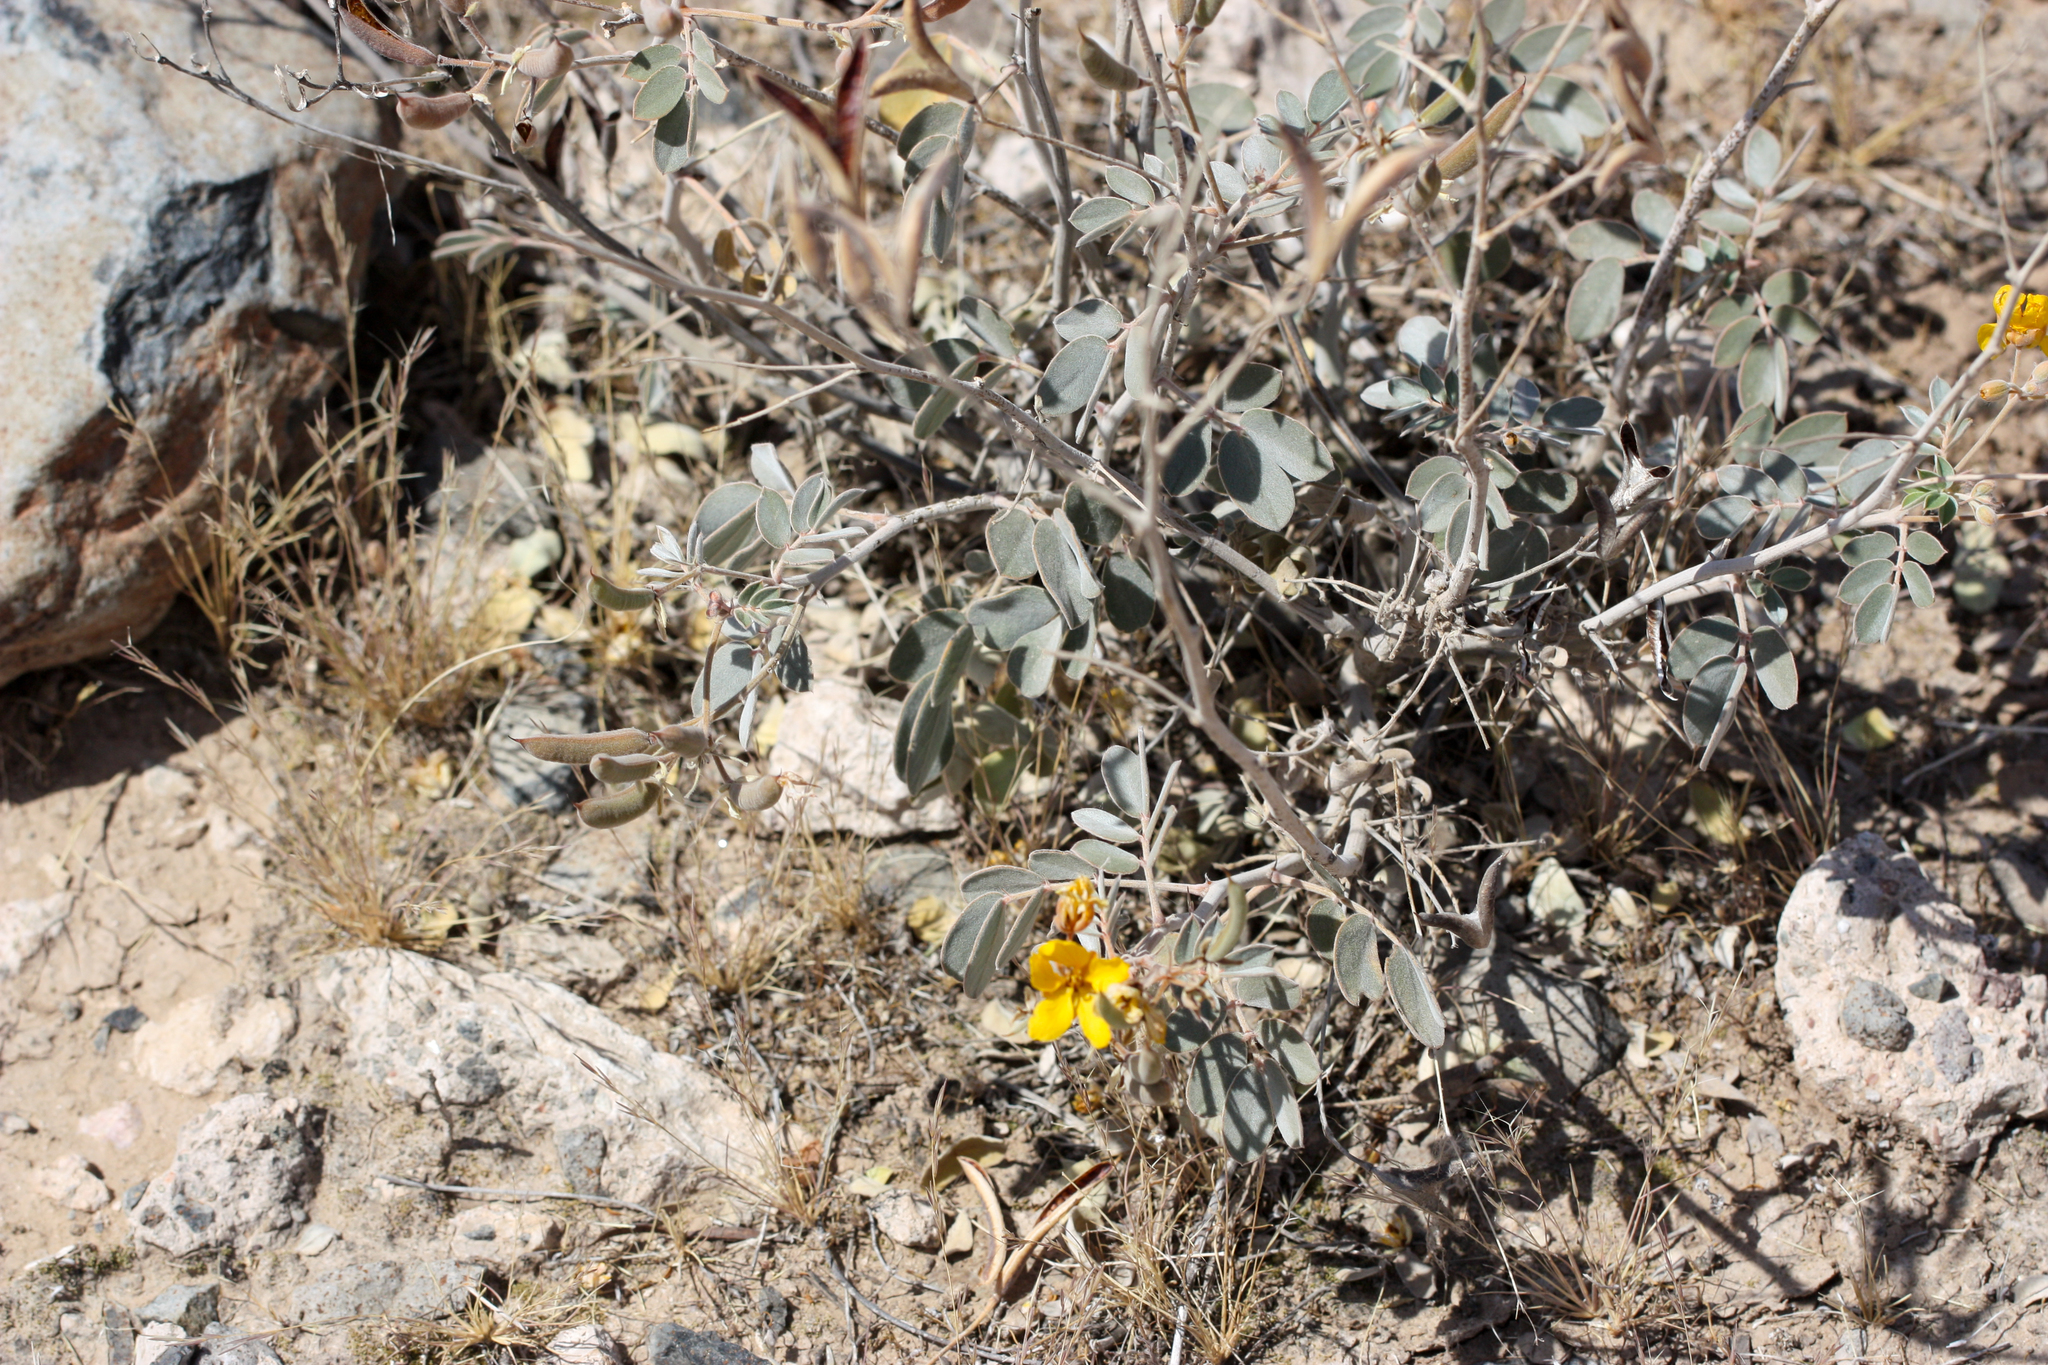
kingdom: Plantae
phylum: Tracheophyta
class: Magnoliopsida
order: Fabales
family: Fabaceae
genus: Senna
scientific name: Senna covesii
